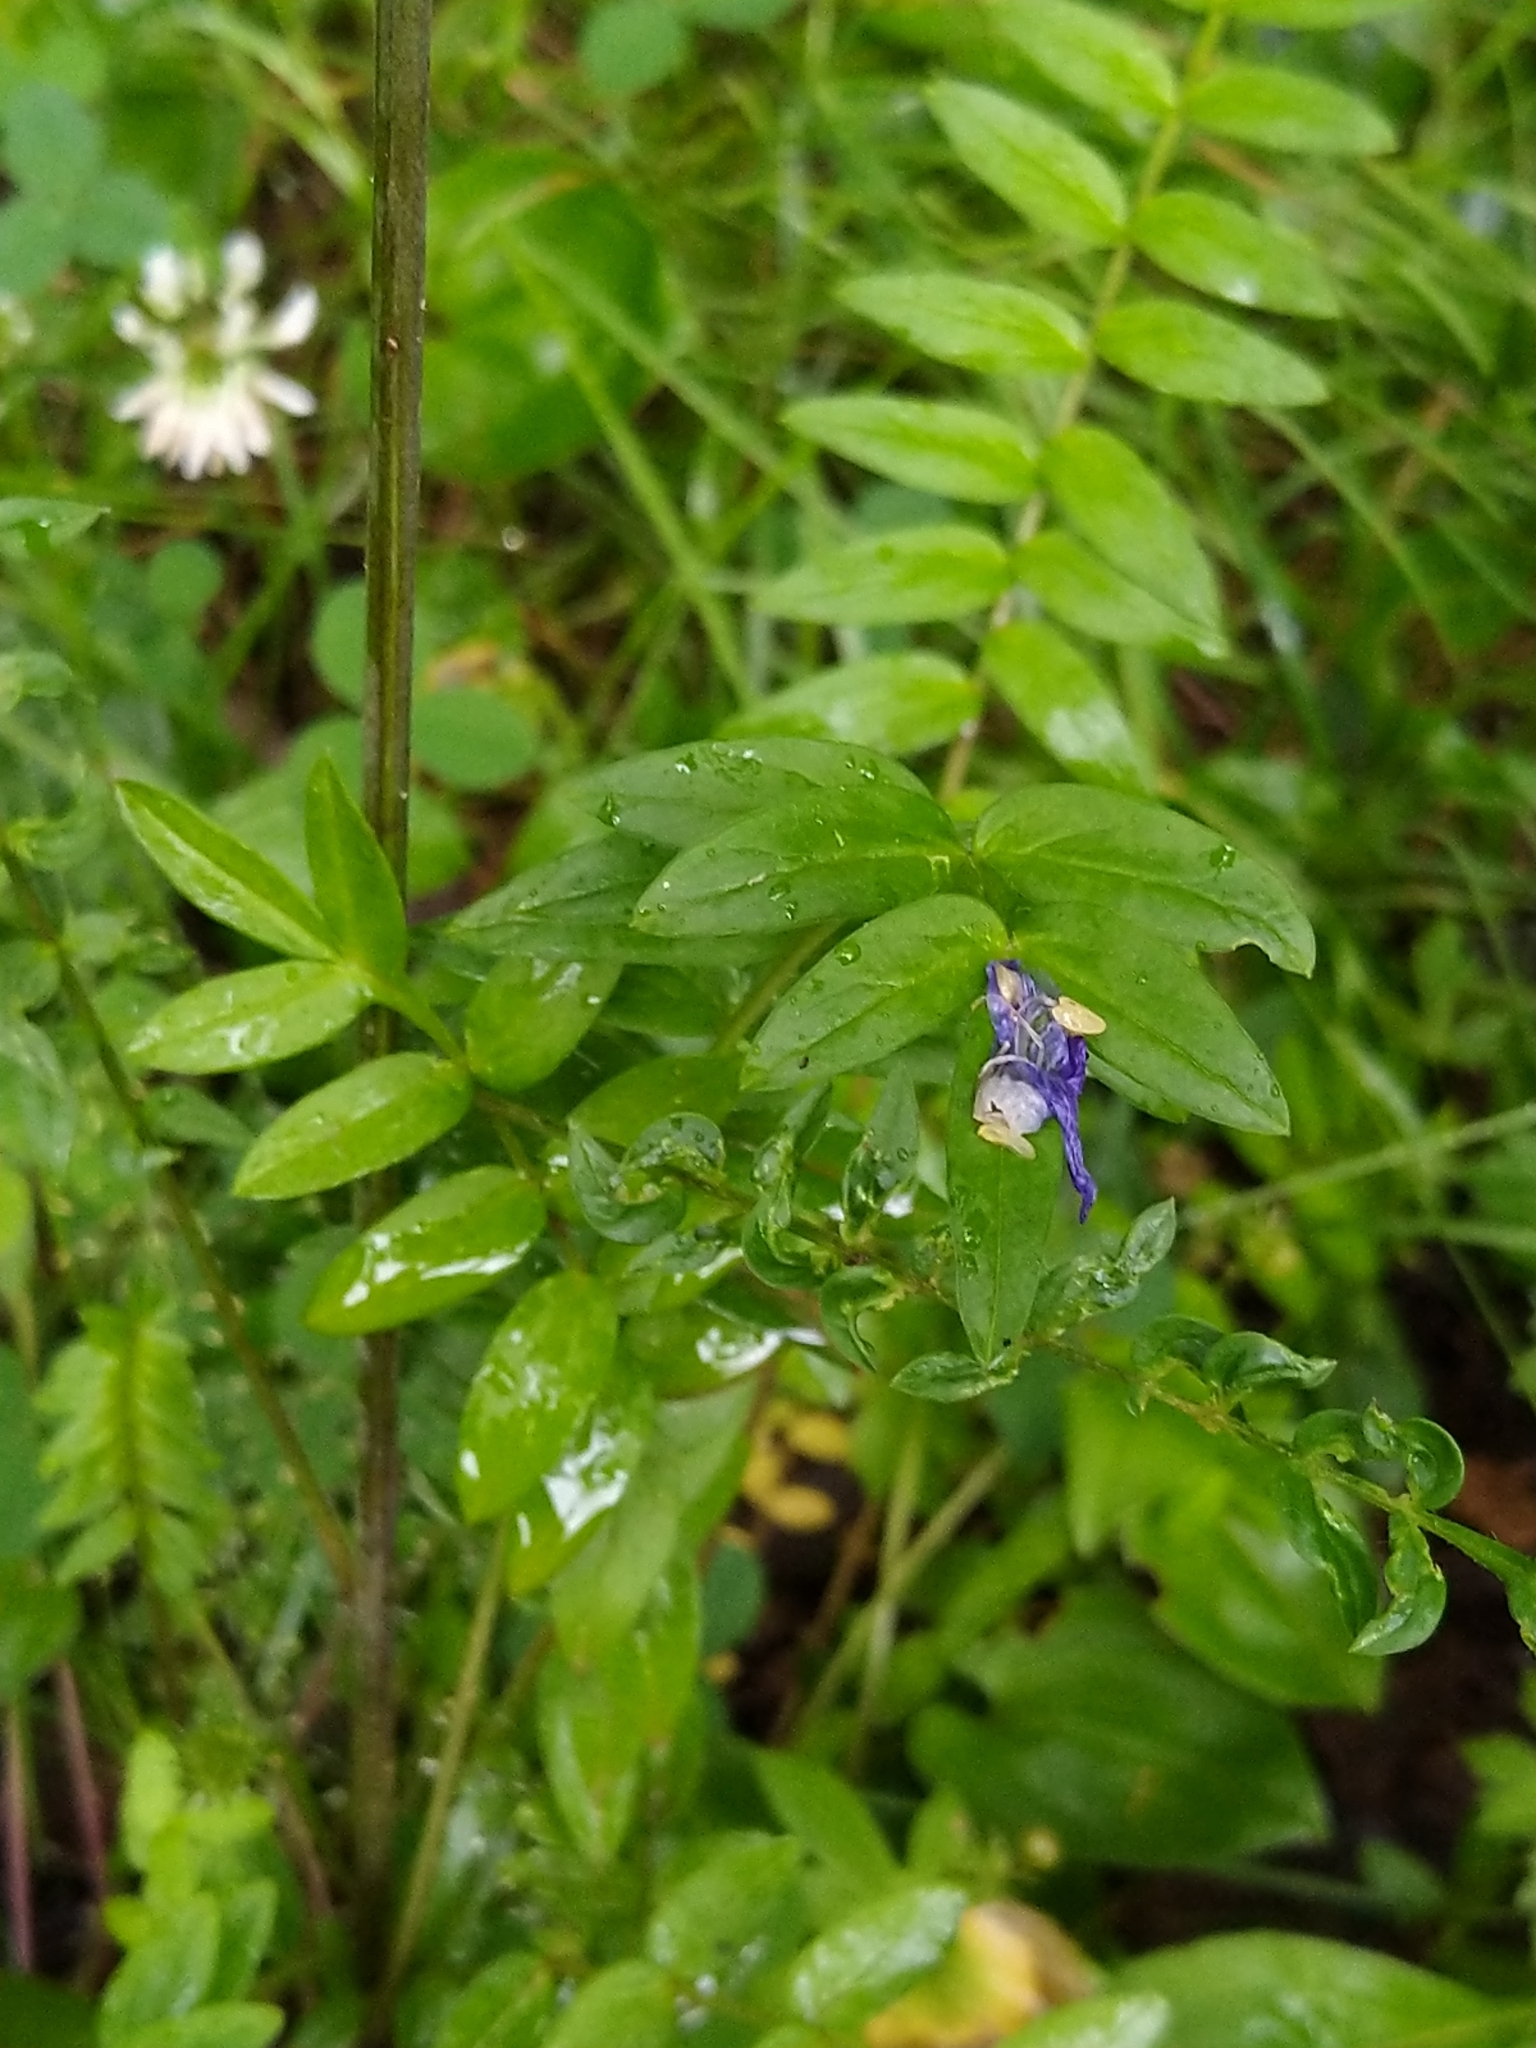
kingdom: Plantae
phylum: Tracheophyta
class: Magnoliopsida
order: Ericales
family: Polemoniaceae
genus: Polemonium
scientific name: Polemonium caeruleum
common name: Jacob's-ladder
